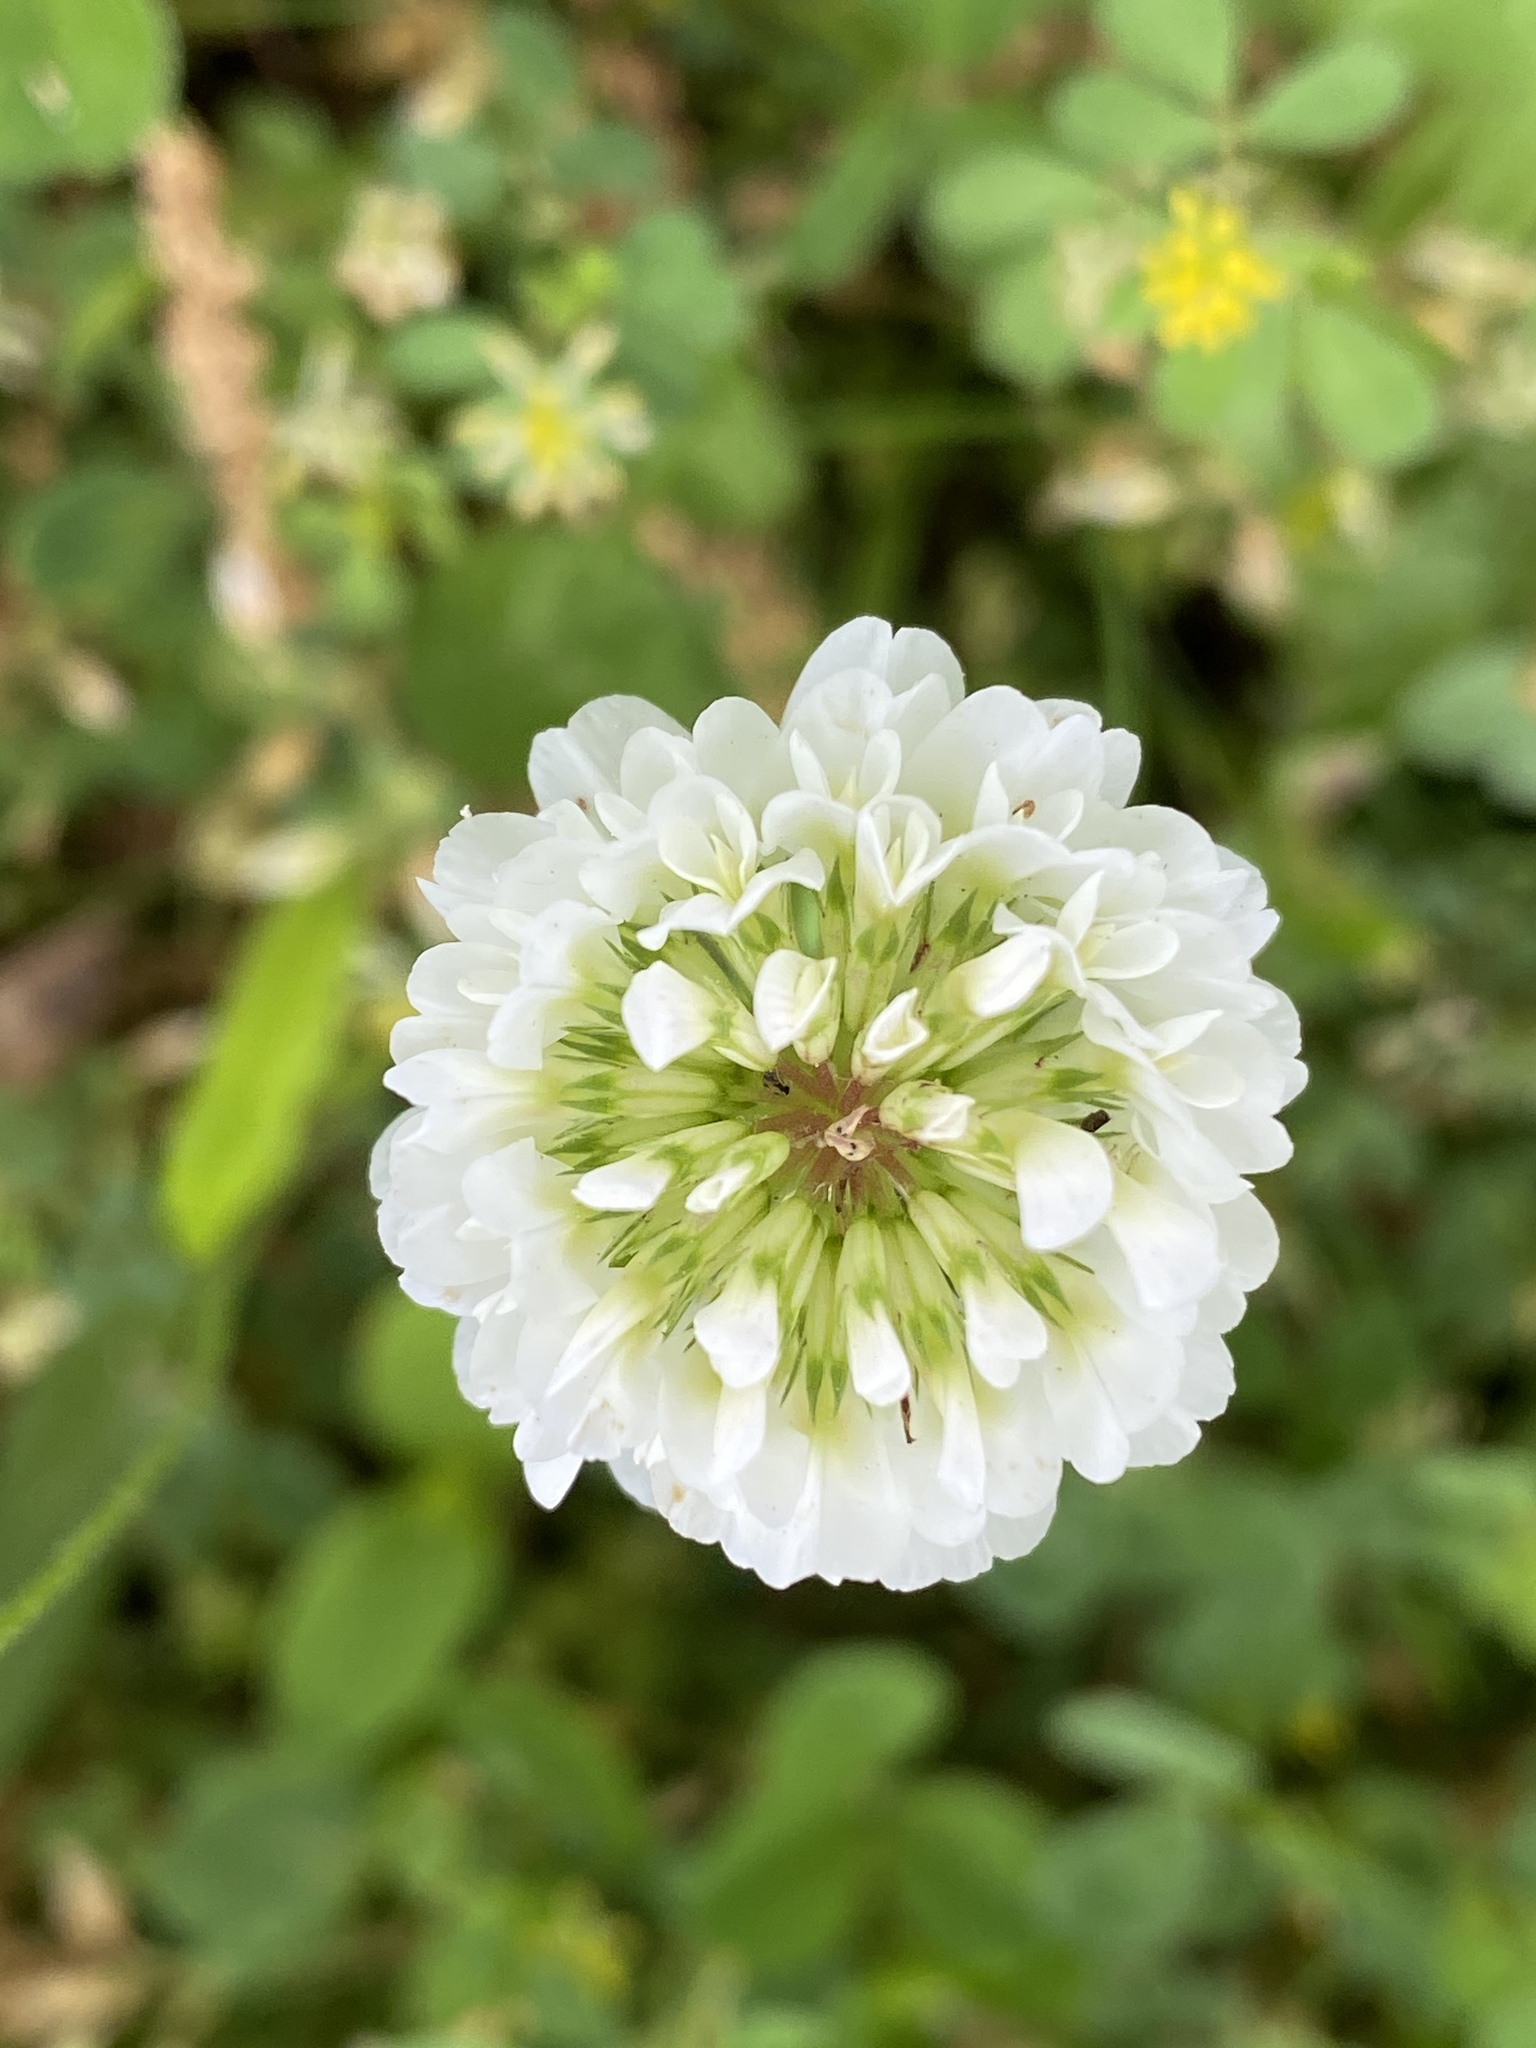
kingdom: Plantae
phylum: Tracheophyta
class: Magnoliopsida
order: Fabales
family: Fabaceae
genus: Trifolium
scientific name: Trifolium repens
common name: White clover
